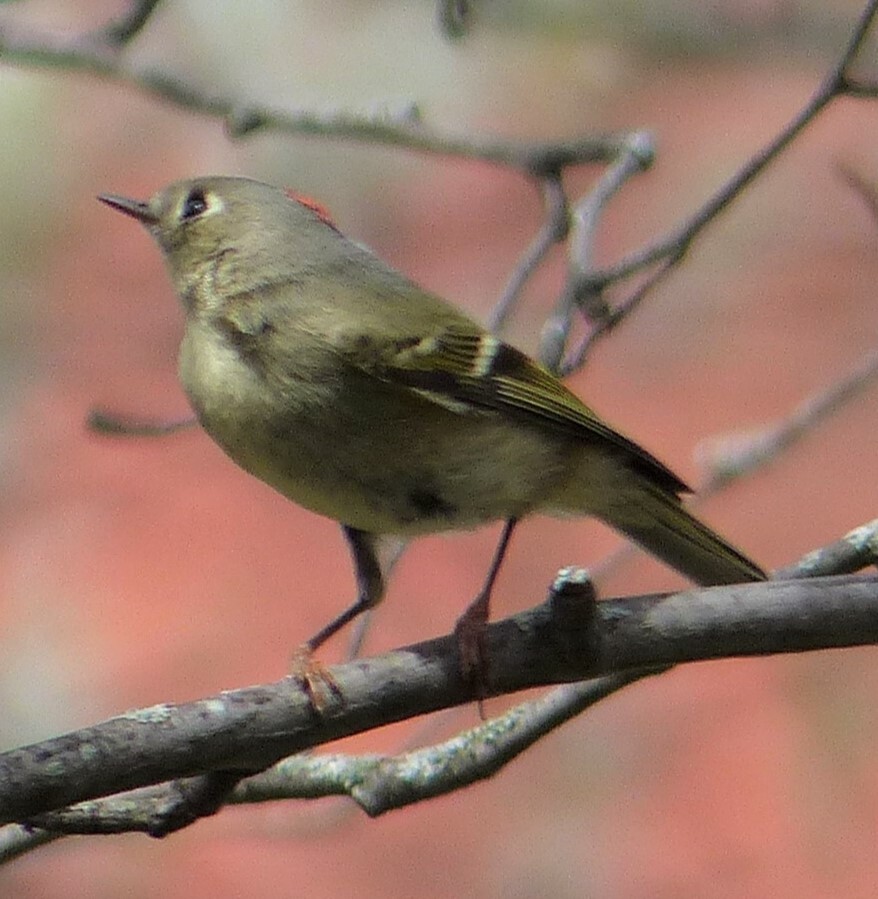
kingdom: Animalia
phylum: Chordata
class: Aves
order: Passeriformes
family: Regulidae
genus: Regulus
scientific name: Regulus calendula
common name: Ruby-crowned kinglet
